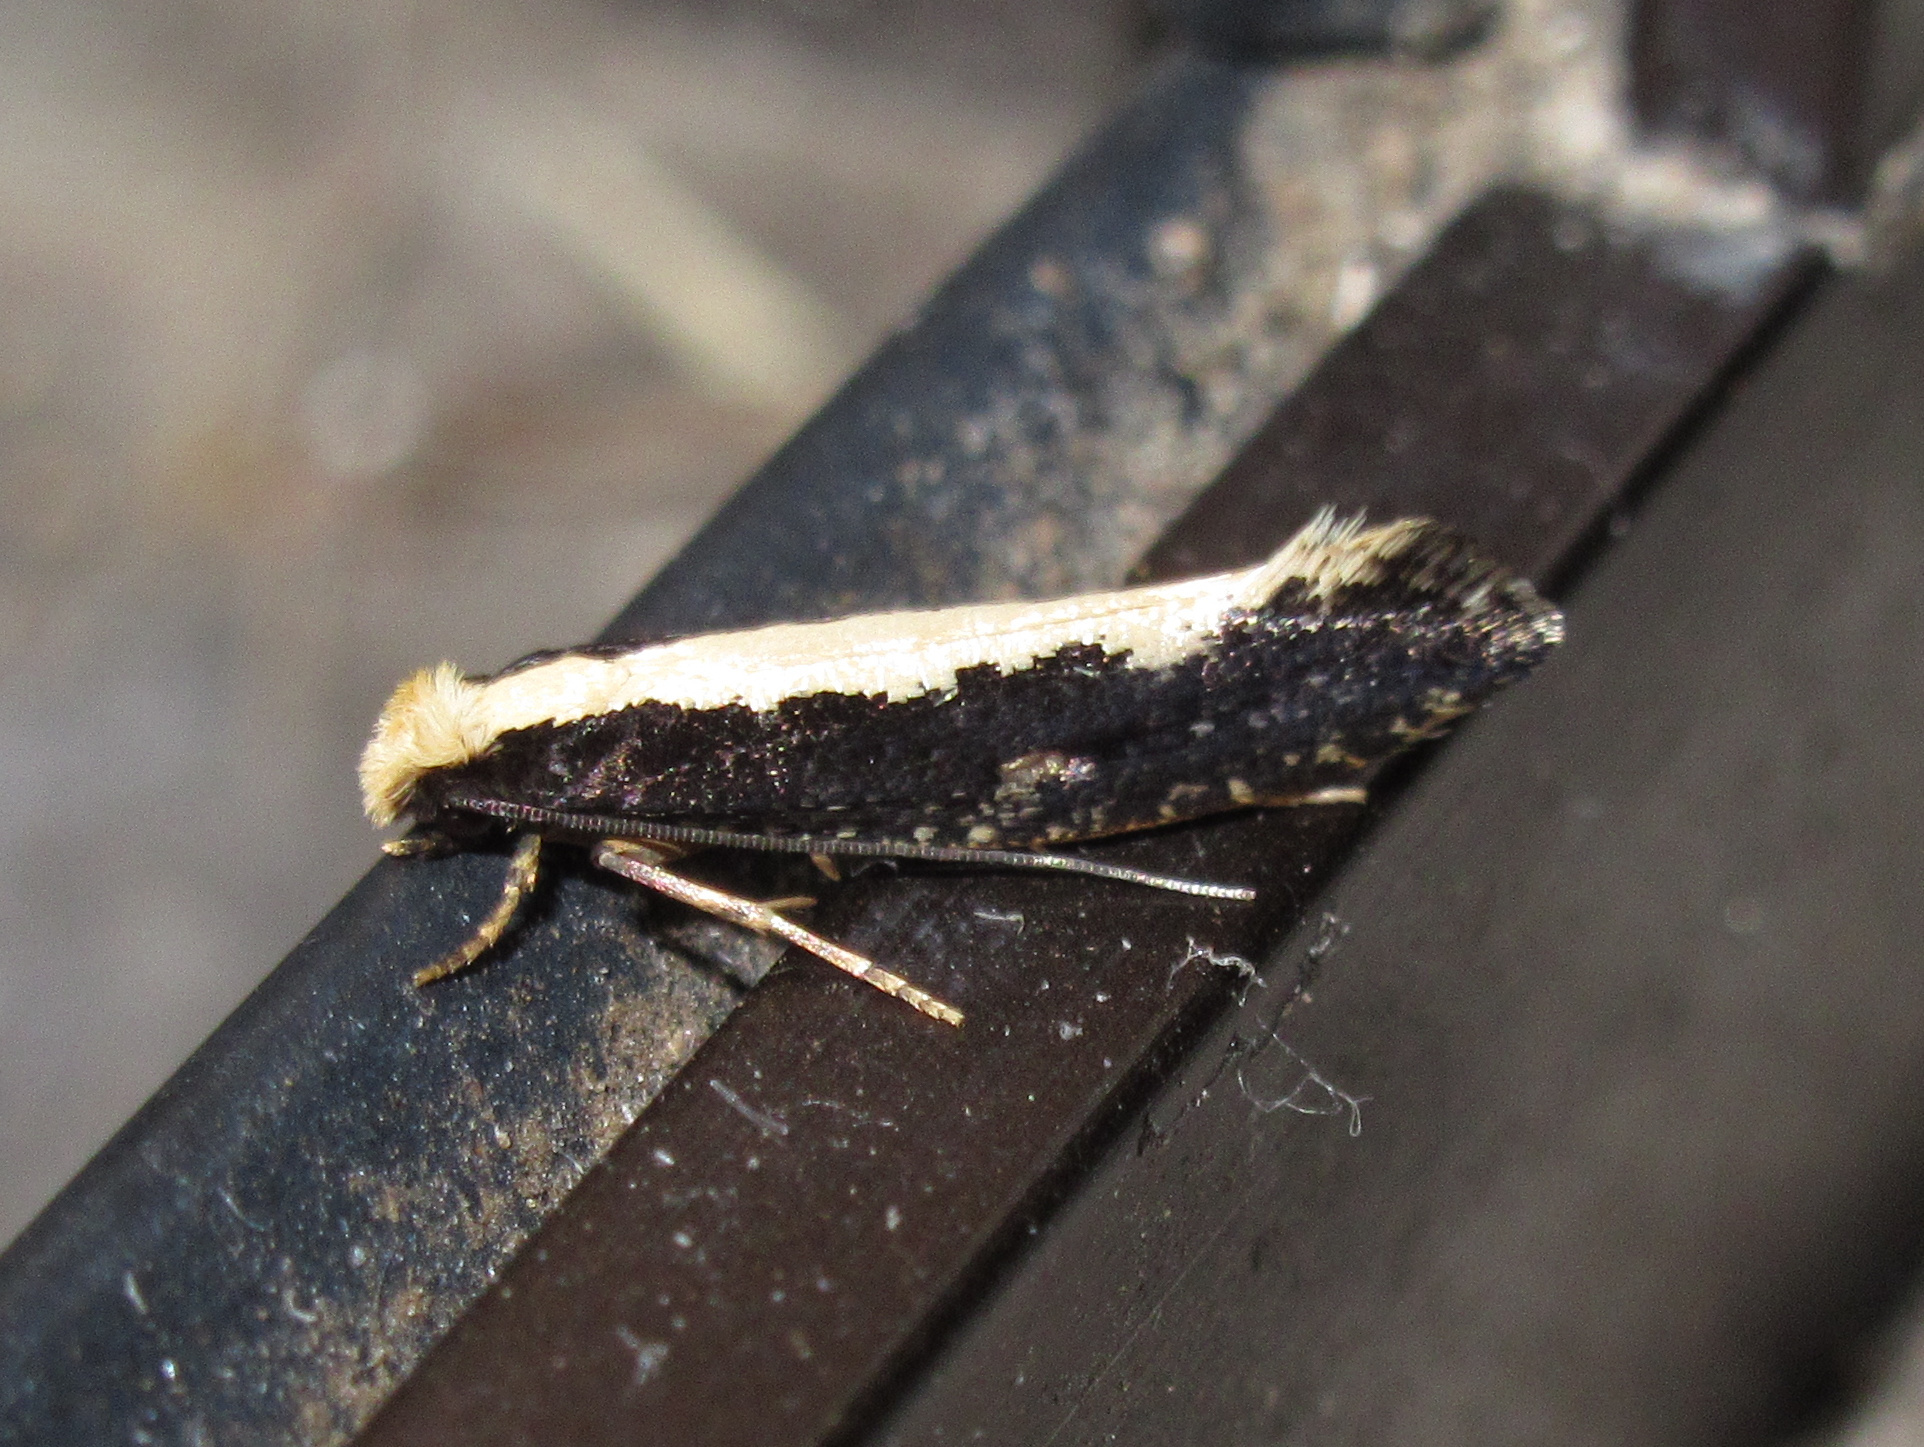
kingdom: Animalia
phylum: Arthropoda
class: Insecta
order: Lepidoptera
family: Tineidae
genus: Monopis
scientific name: Monopis ethelella
